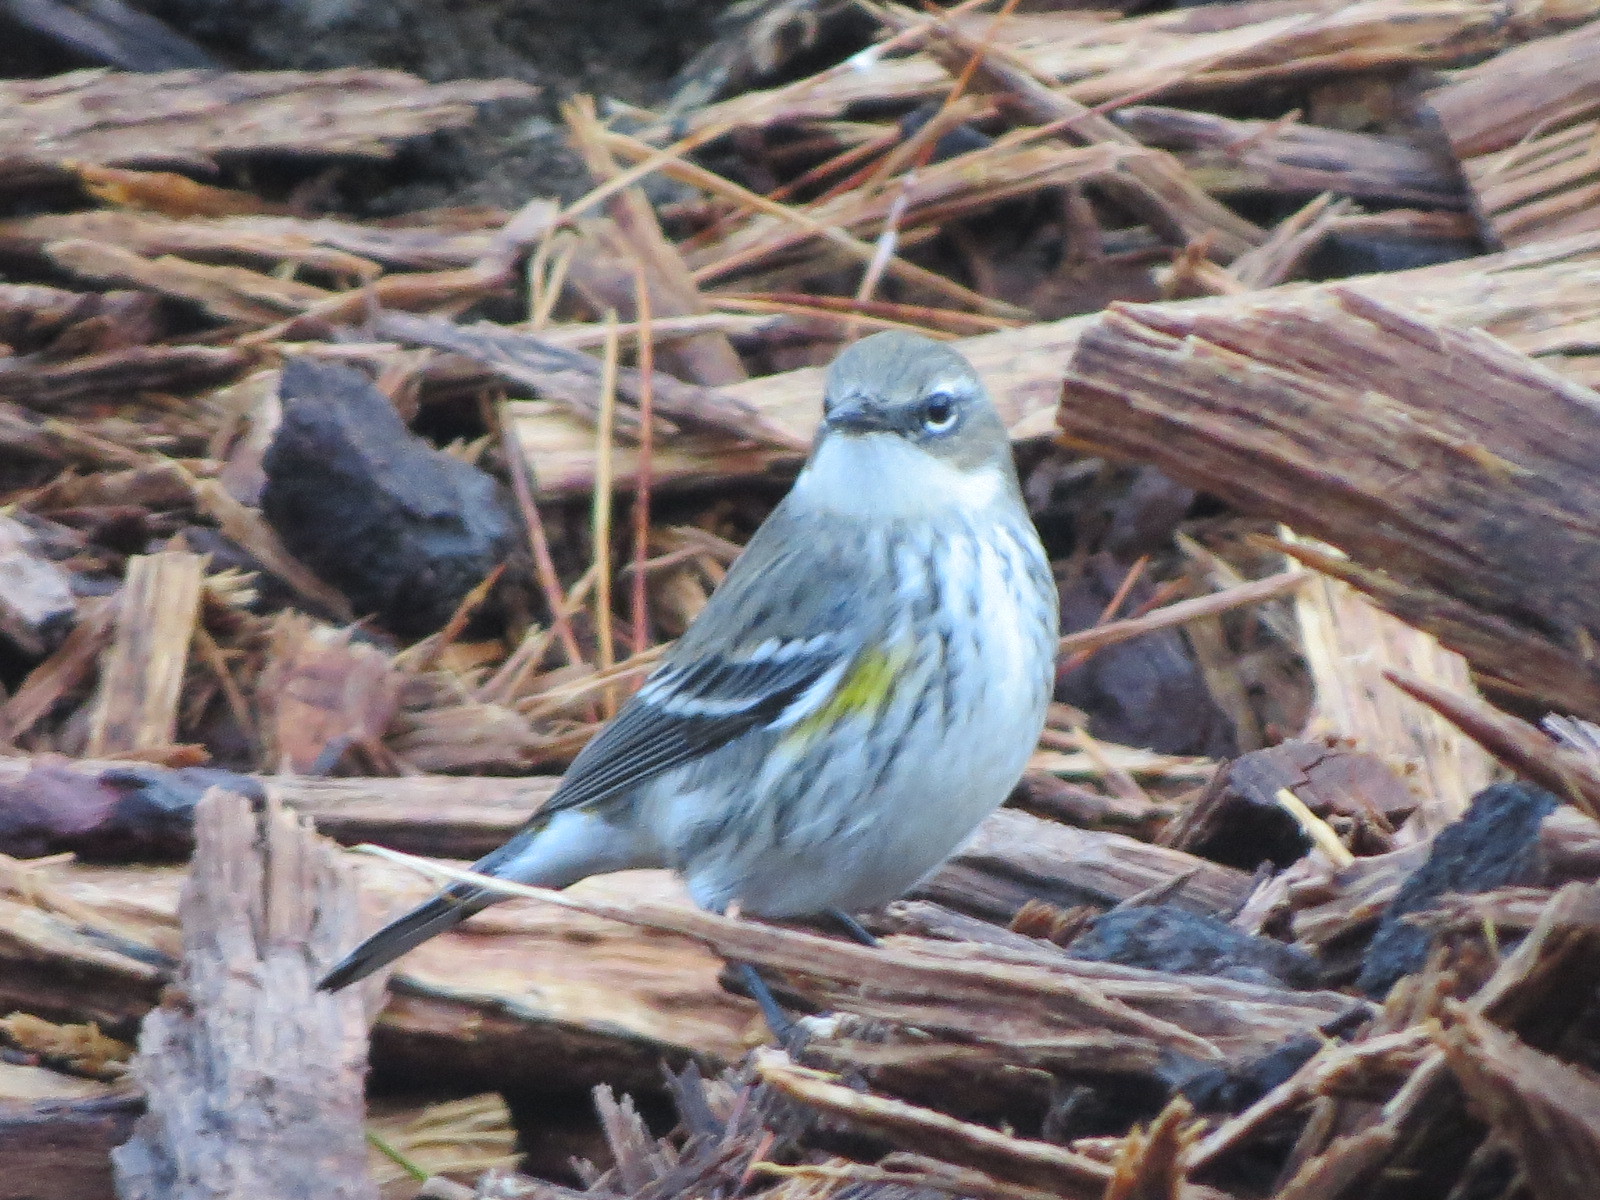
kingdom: Animalia
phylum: Chordata
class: Aves
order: Passeriformes
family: Parulidae
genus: Setophaga
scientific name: Setophaga coronata
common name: Myrtle warbler
